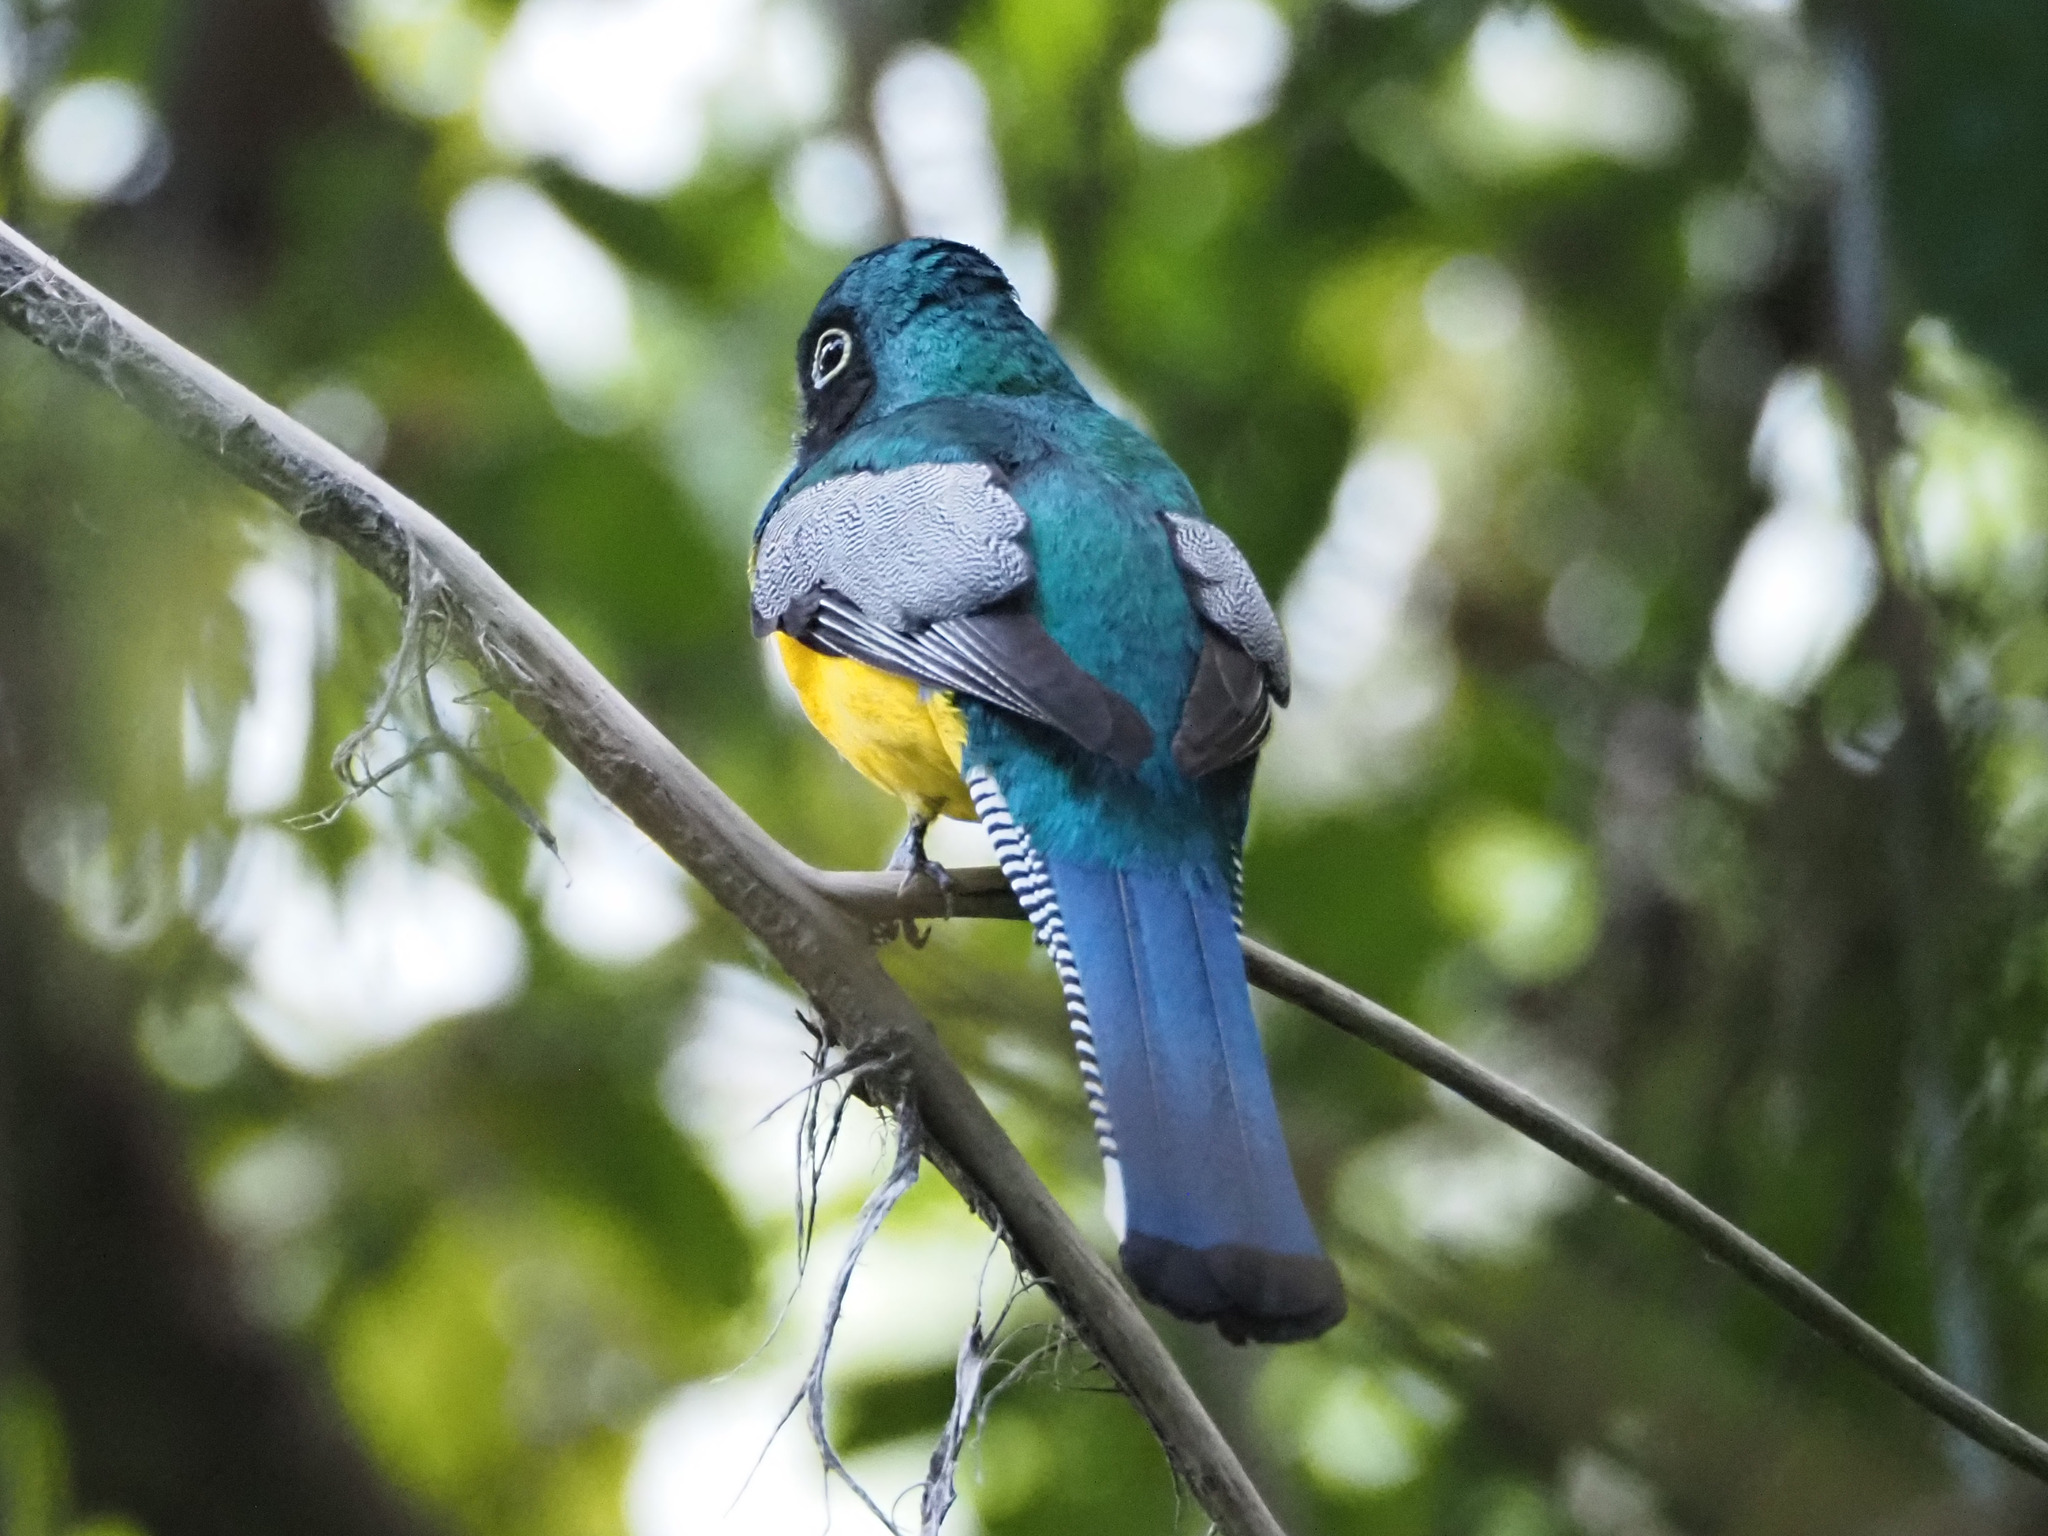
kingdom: Animalia
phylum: Chordata
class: Aves
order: Trogoniformes
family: Trogonidae
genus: Trogon
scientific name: Trogon rufus
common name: Black-throated trogon
